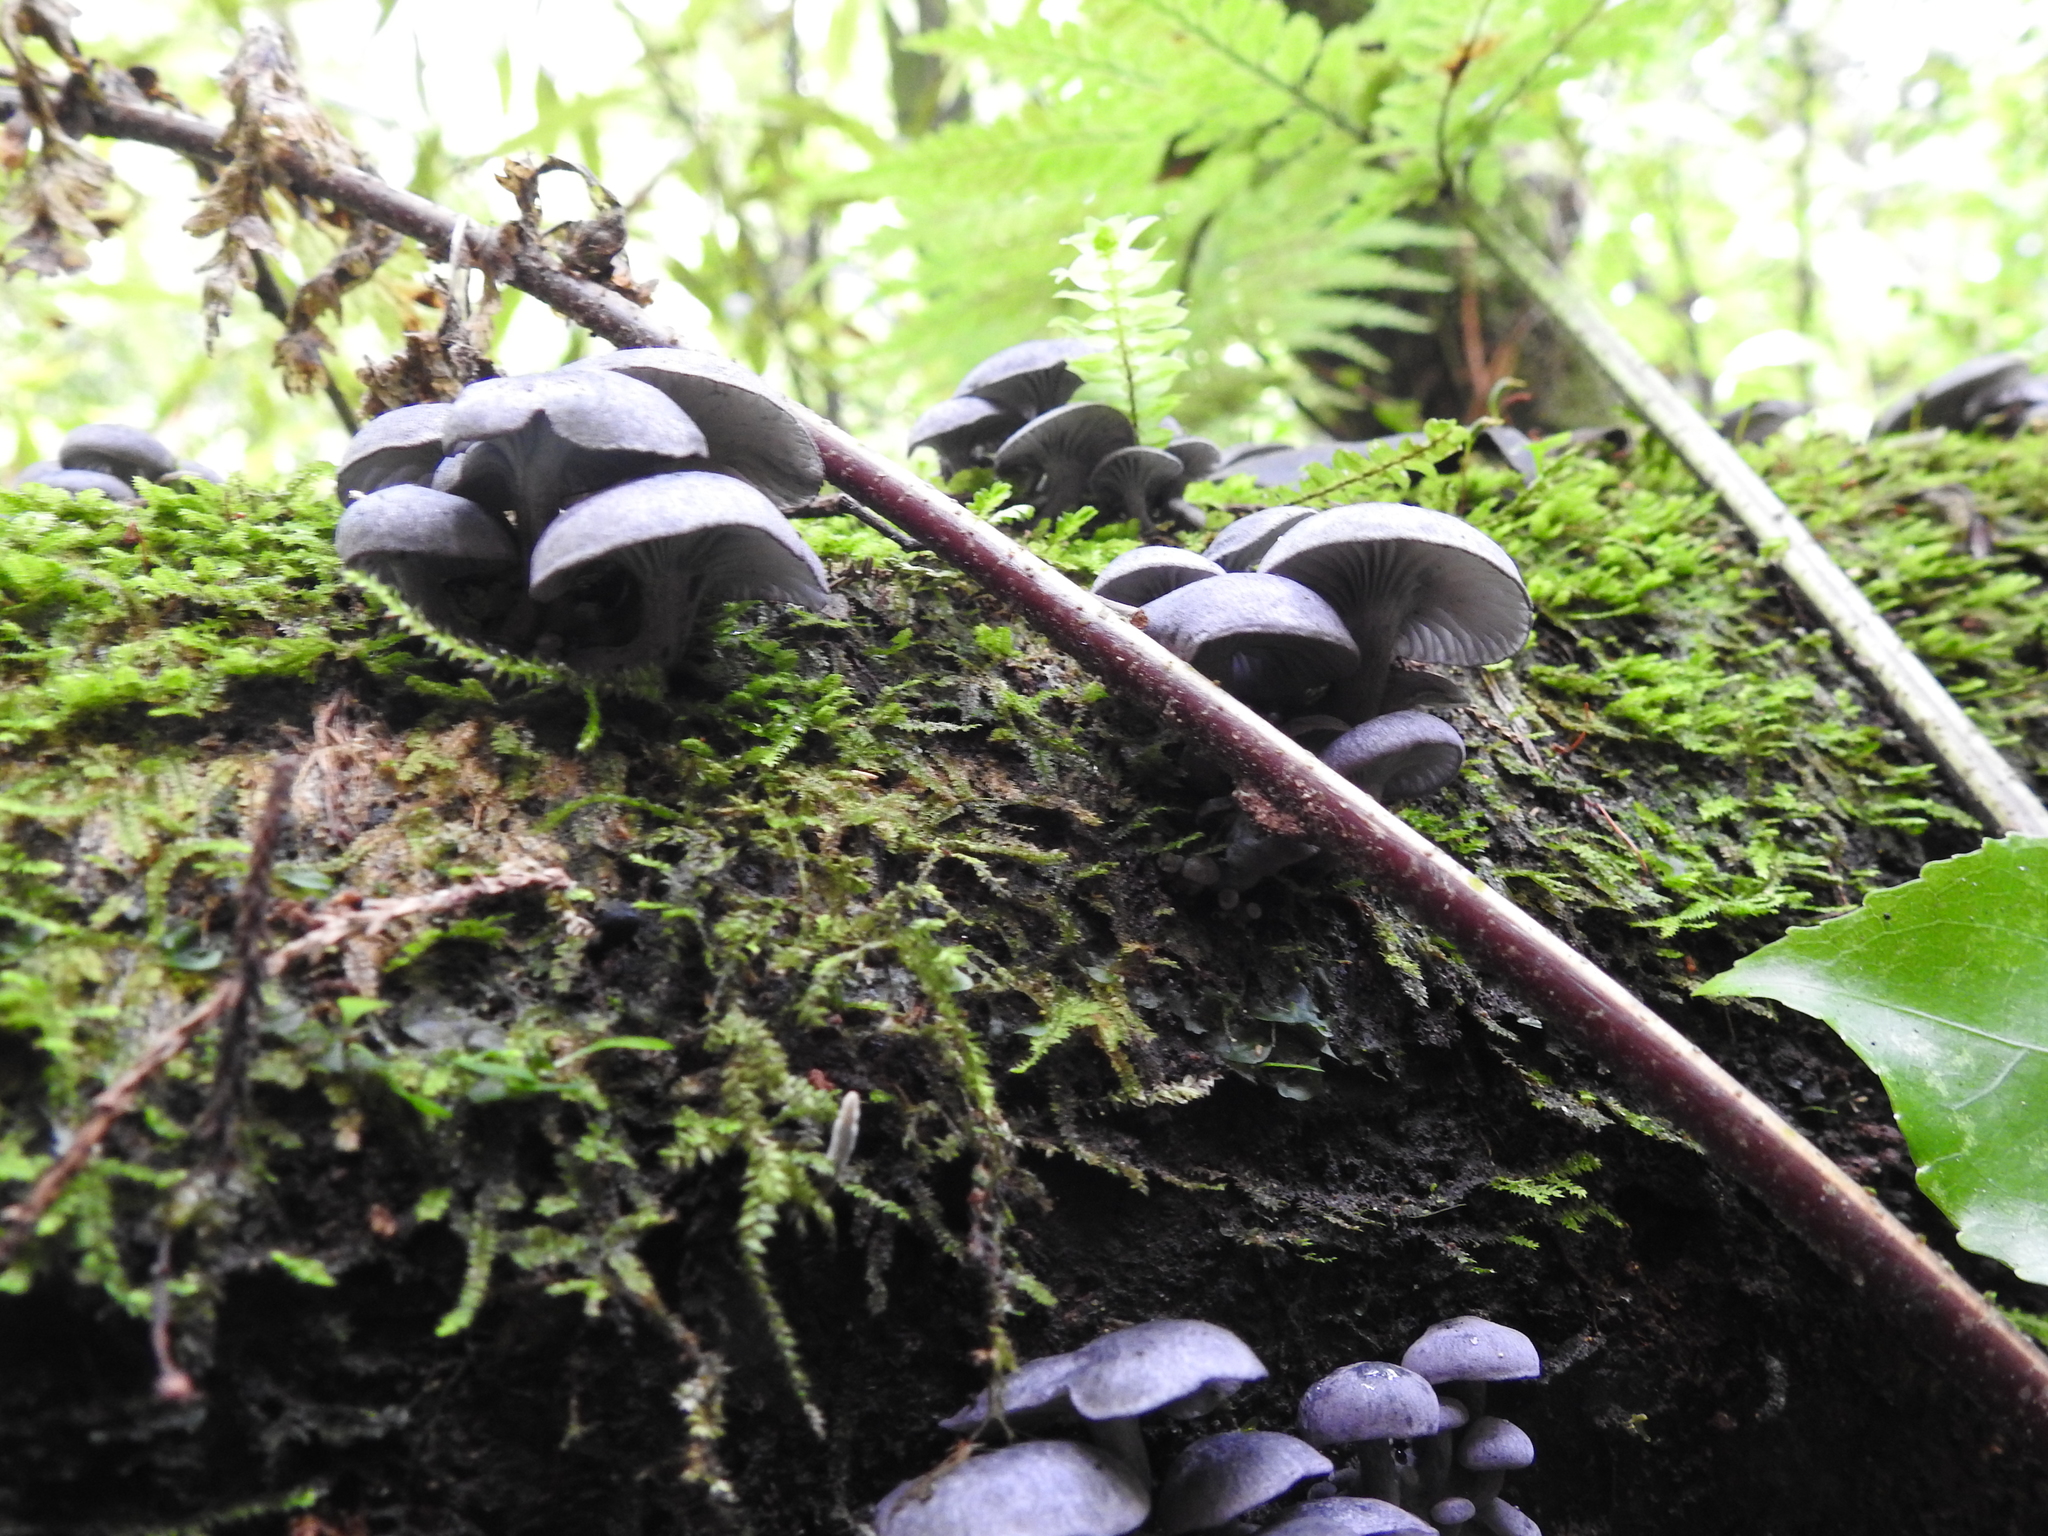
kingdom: Fungi
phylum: Basidiomycota
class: Agaricomycetes
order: Agaricales
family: Marasmiaceae
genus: Gerronema
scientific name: Gerronema waikanaense
